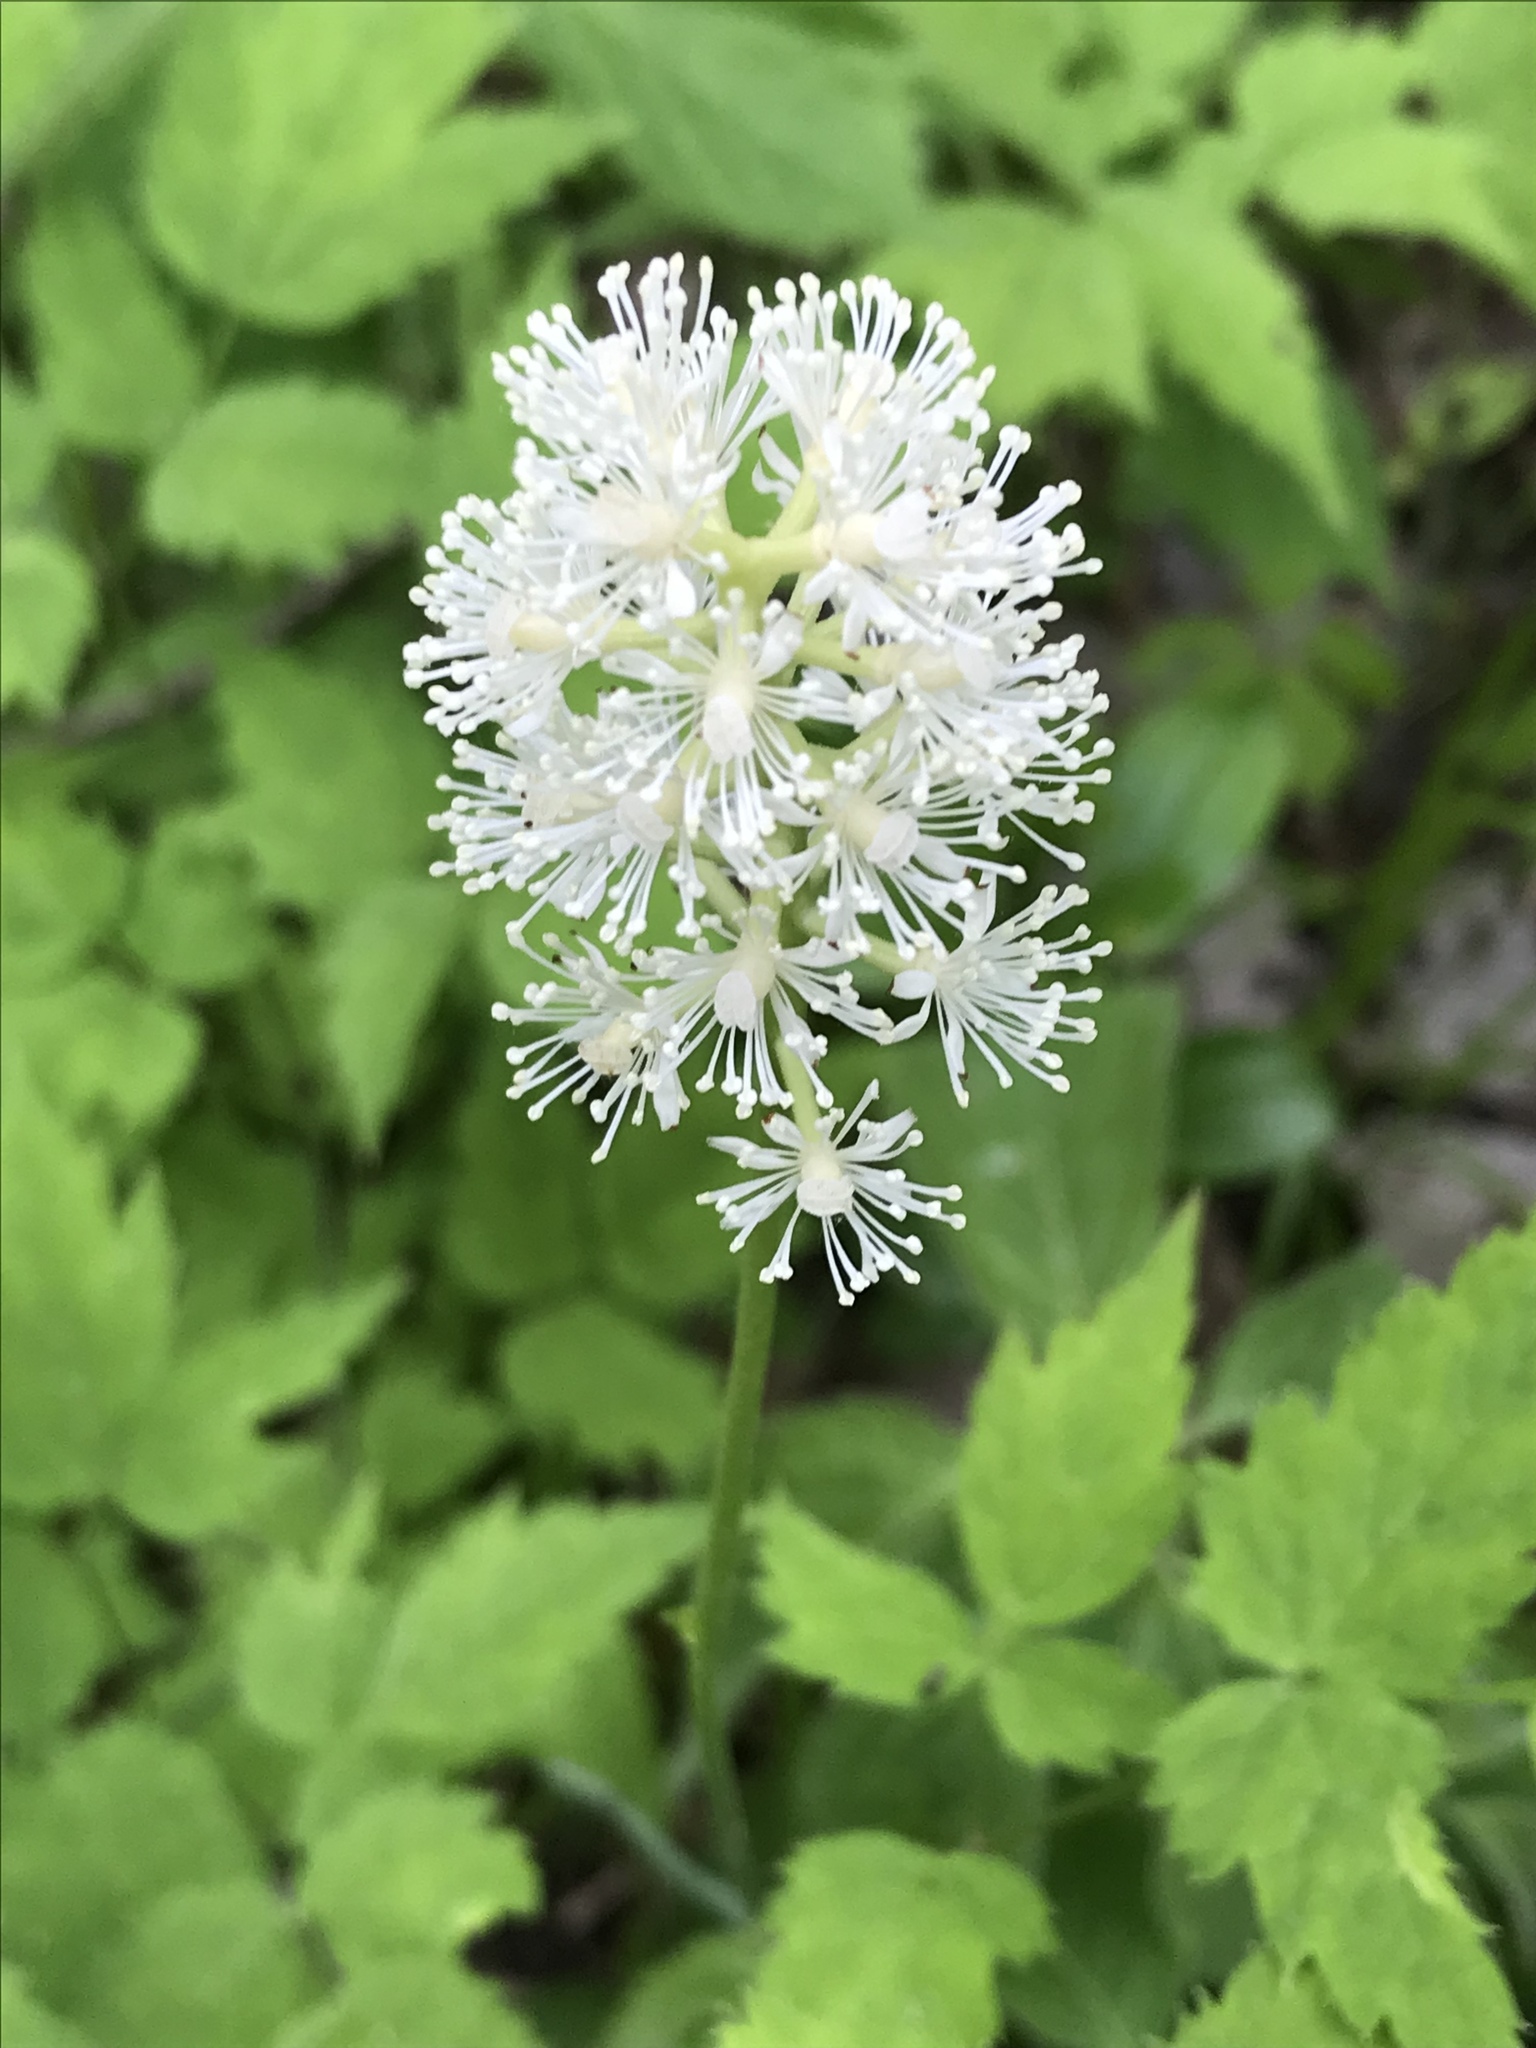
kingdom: Plantae
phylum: Tracheophyta
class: Magnoliopsida
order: Ranunculales
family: Ranunculaceae
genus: Actaea
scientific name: Actaea pachypoda
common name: Doll's-eyes
